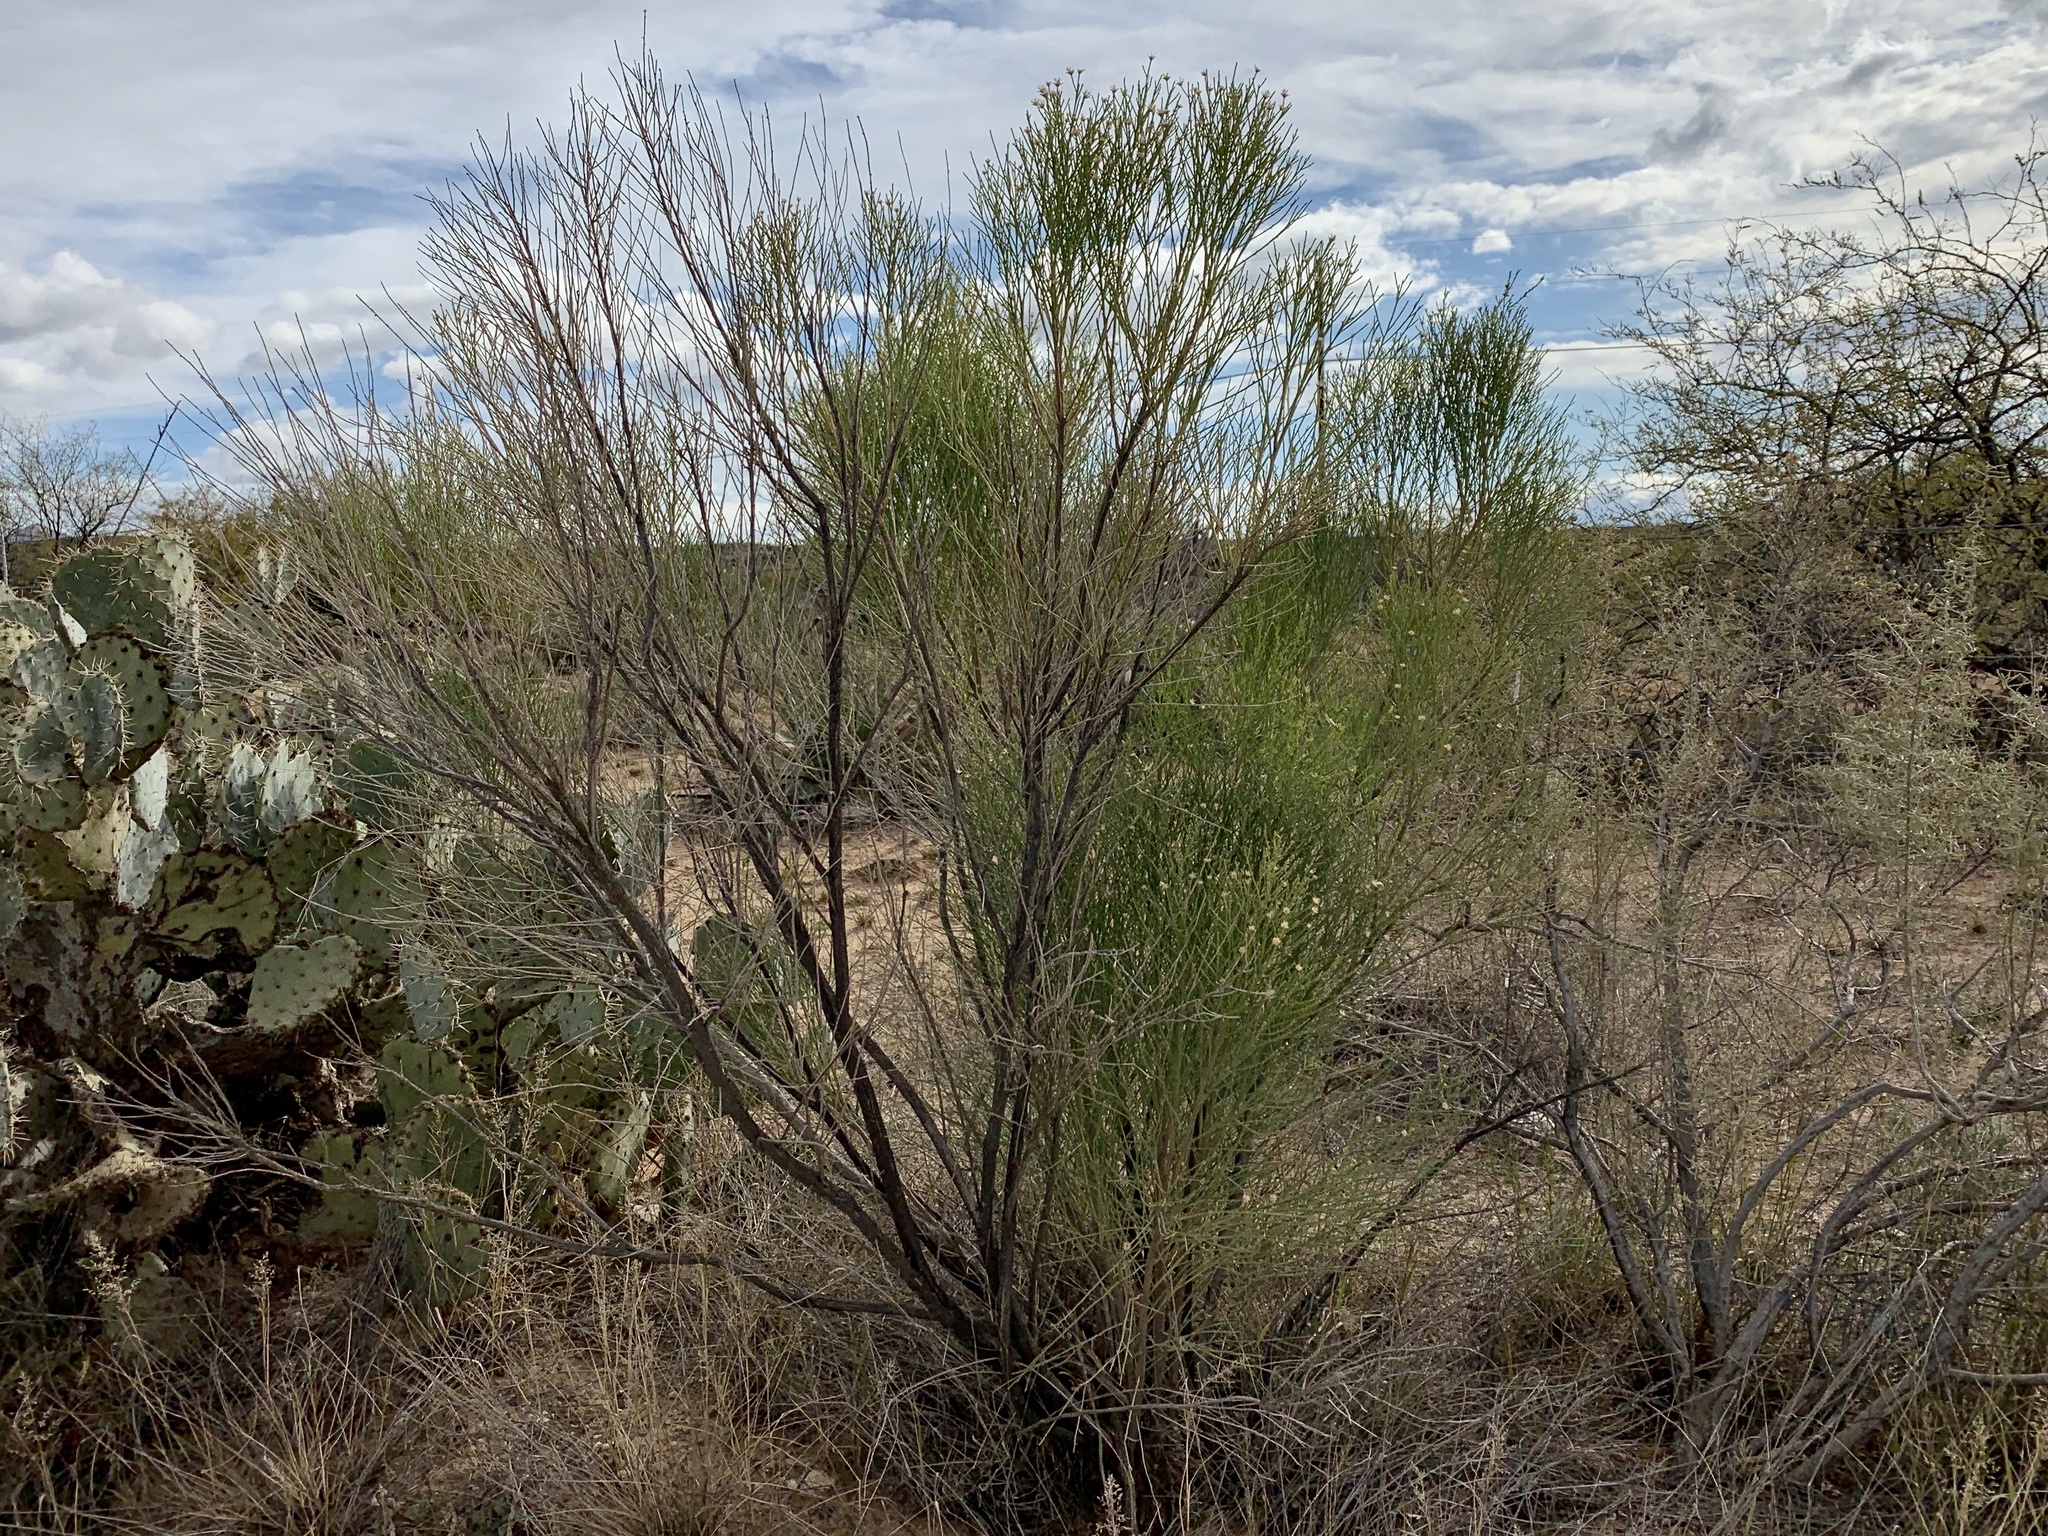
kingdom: Plantae
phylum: Tracheophyta
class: Magnoliopsida
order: Asterales
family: Asteraceae
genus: Baccharis
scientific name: Baccharis sarothroides
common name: Desert-broom
